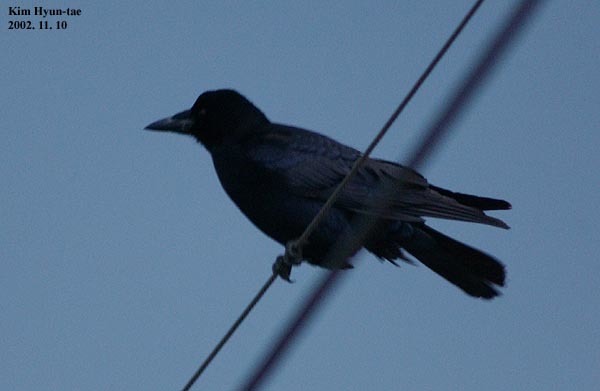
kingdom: Animalia
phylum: Chordata
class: Aves
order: Passeriformes
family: Corvidae
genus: Corvus
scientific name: Corvus frugilegus
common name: Rook
